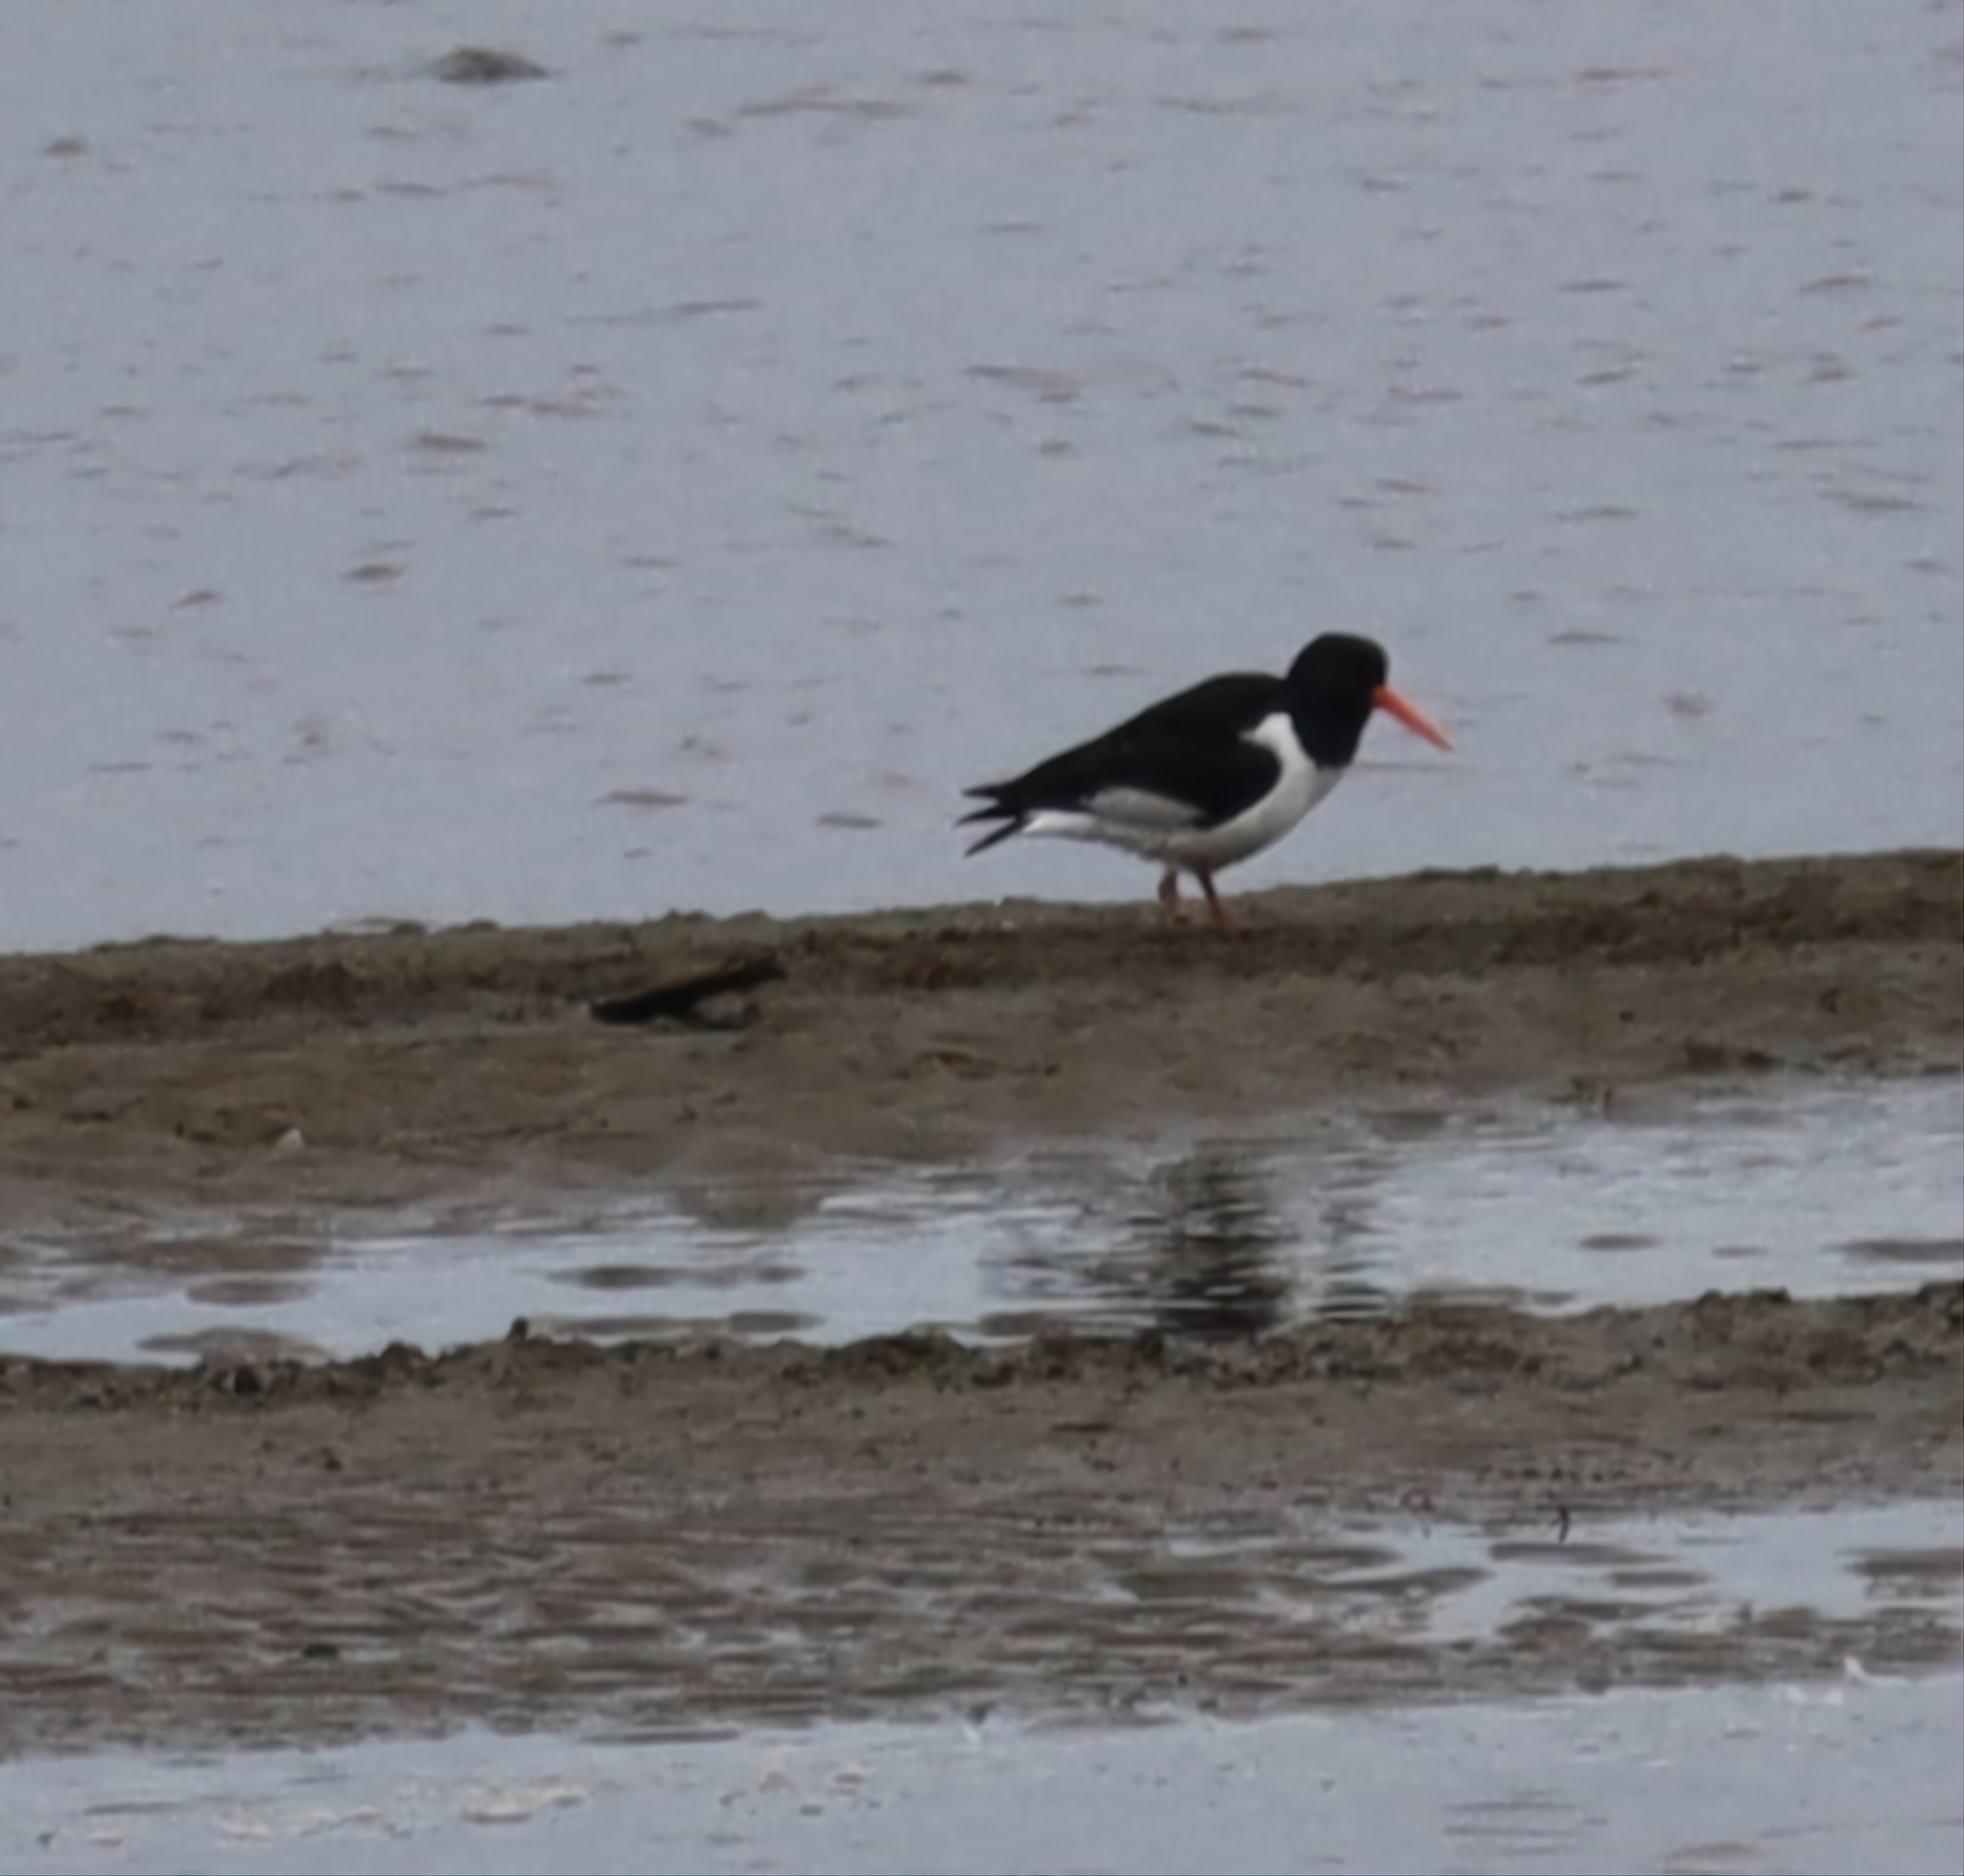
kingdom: Animalia
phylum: Chordata
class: Aves
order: Charadriiformes
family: Haematopodidae
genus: Haematopus
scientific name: Haematopus ostralegus
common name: Eurasian oystercatcher
